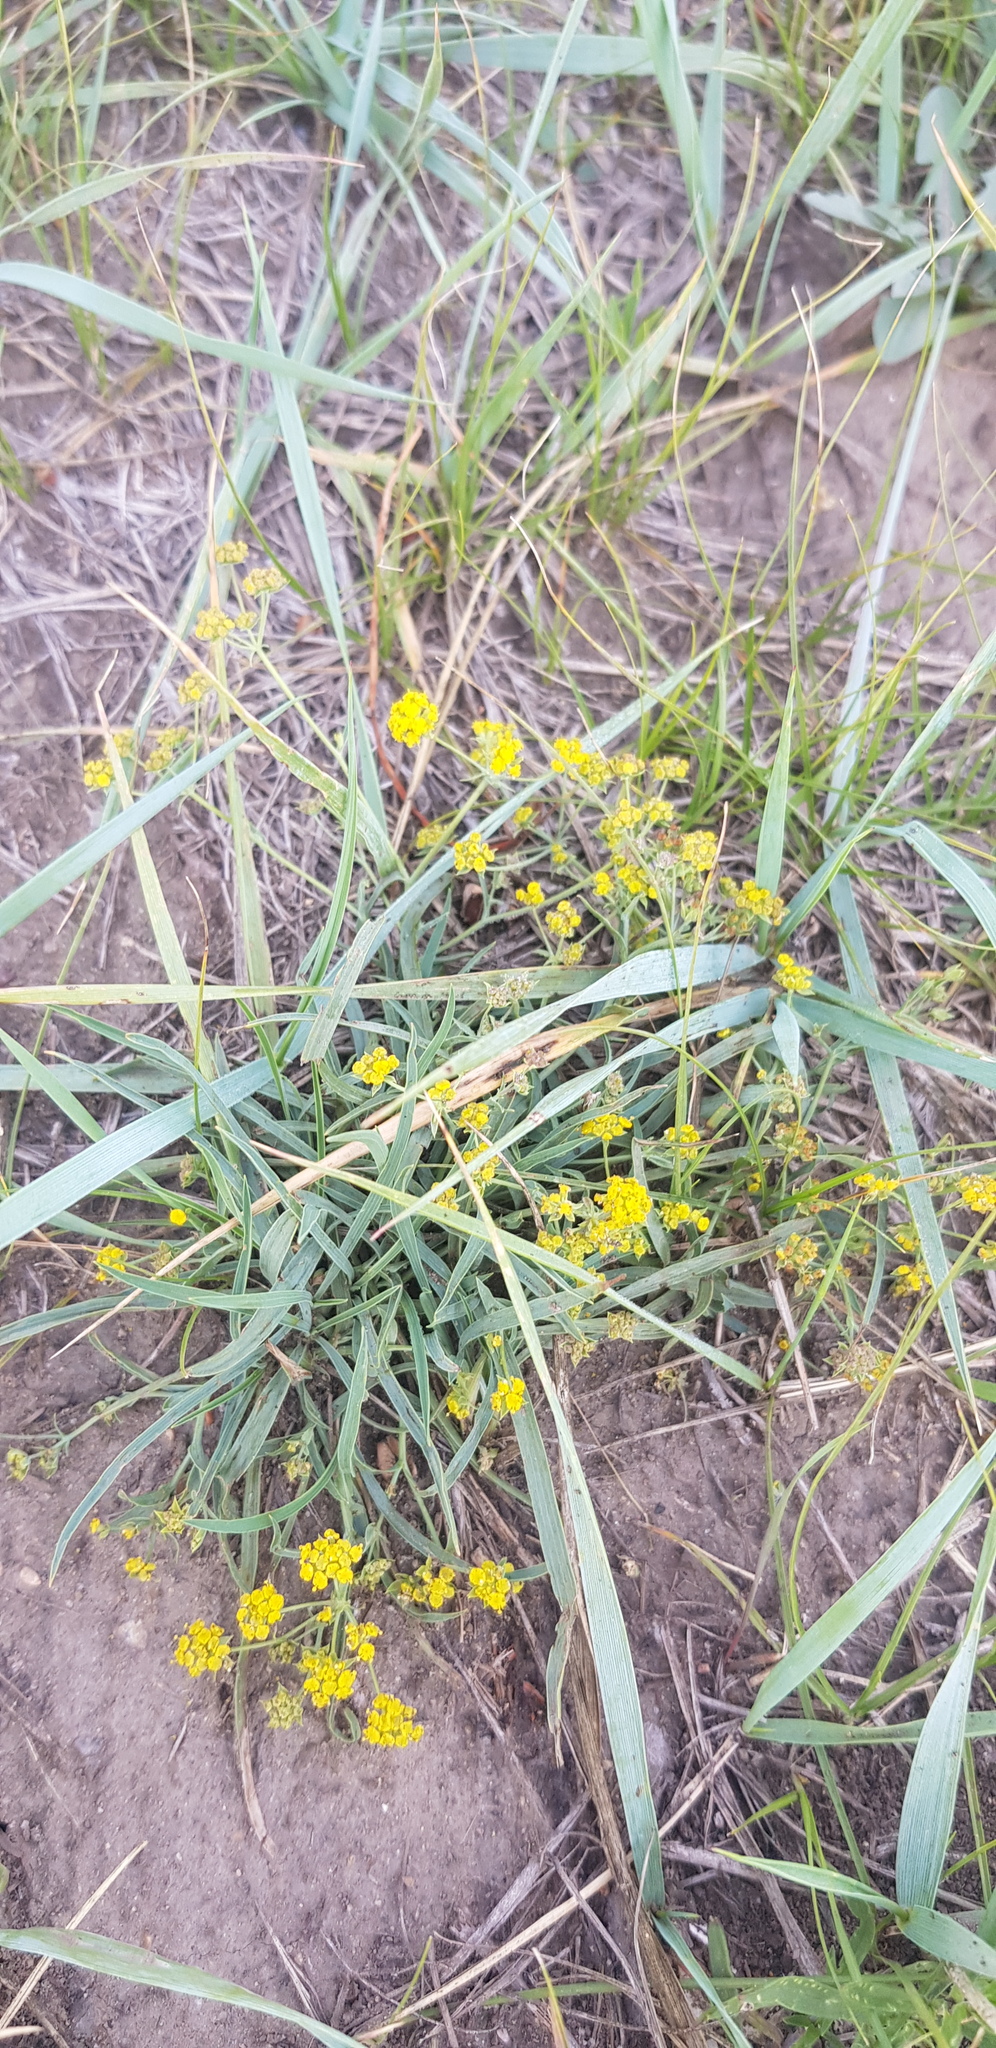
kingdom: Plantae
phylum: Tracheophyta
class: Magnoliopsida
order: Apiales
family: Apiaceae
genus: Bupleurum
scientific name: Bupleurum scorzonerifolium
